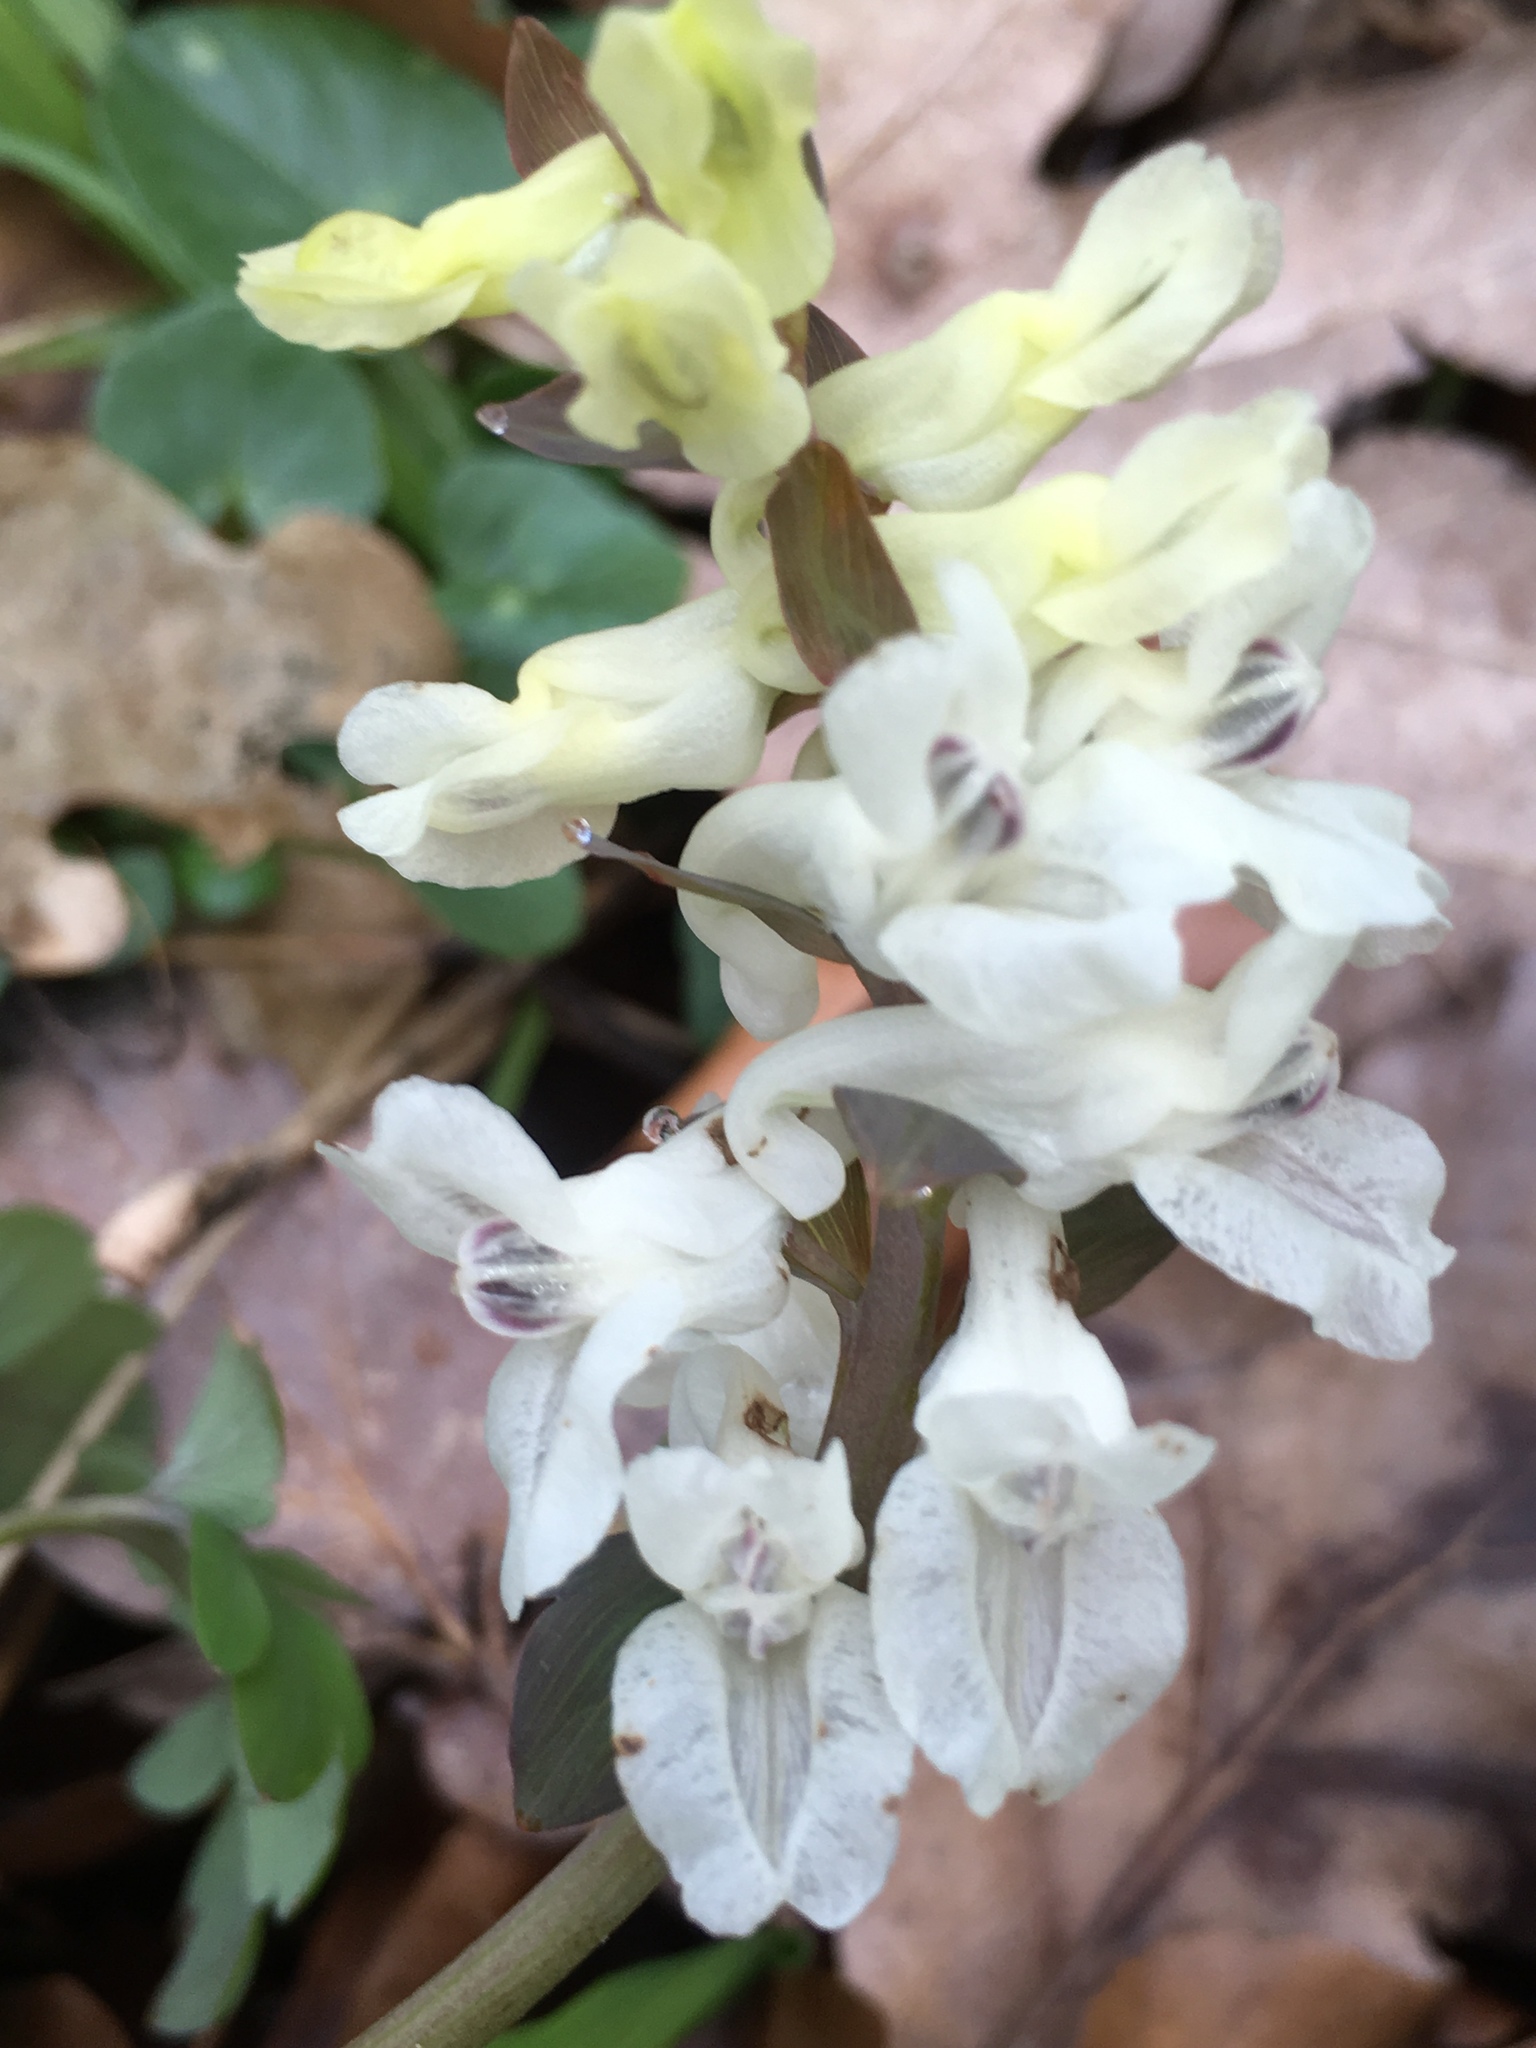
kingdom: Plantae
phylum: Tracheophyta
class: Magnoliopsida
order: Ranunculales
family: Papaveraceae
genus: Corydalis
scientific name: Corydalis cava
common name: Hollowroot
